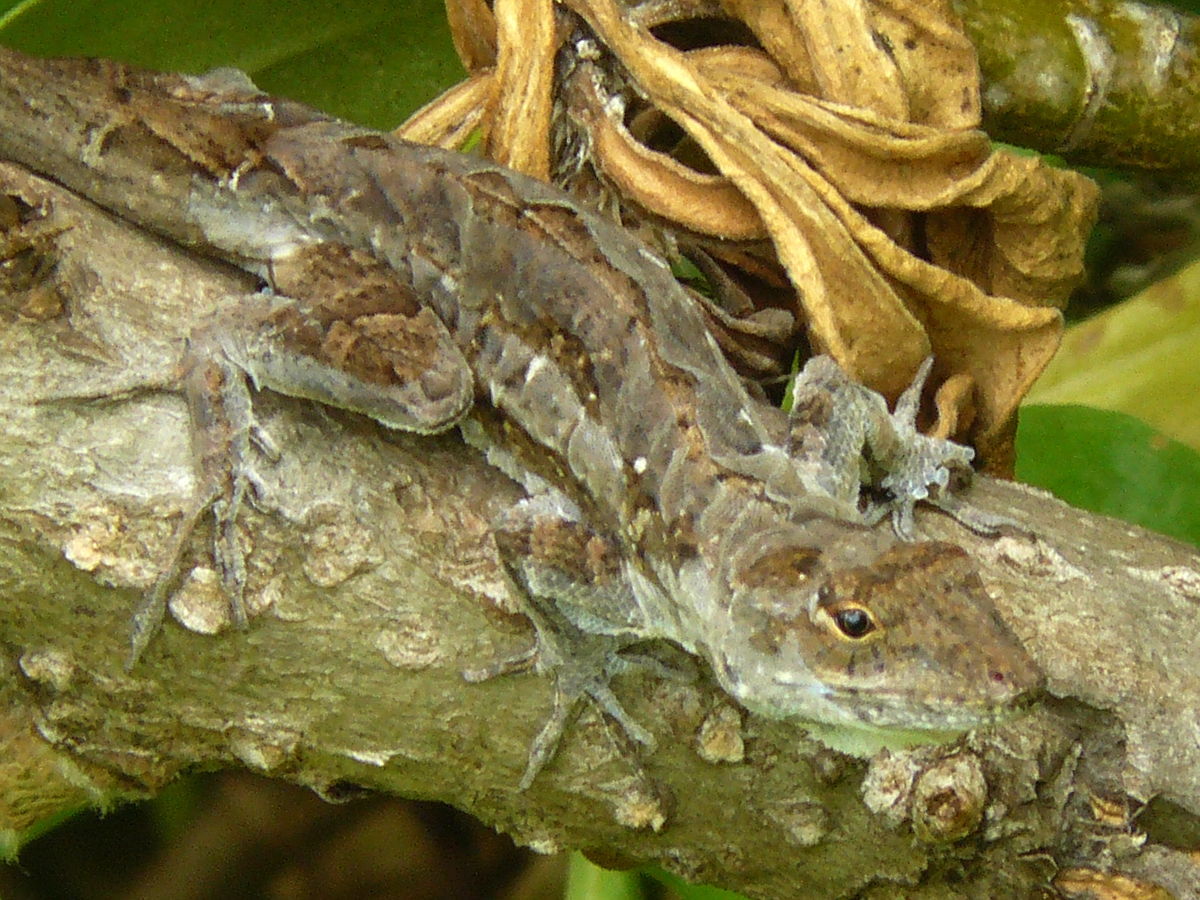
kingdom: Animalia
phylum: Chordata
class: Squamata
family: Dactyloidae
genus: Anolis
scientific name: Anolis sagrei
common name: Brown anole
